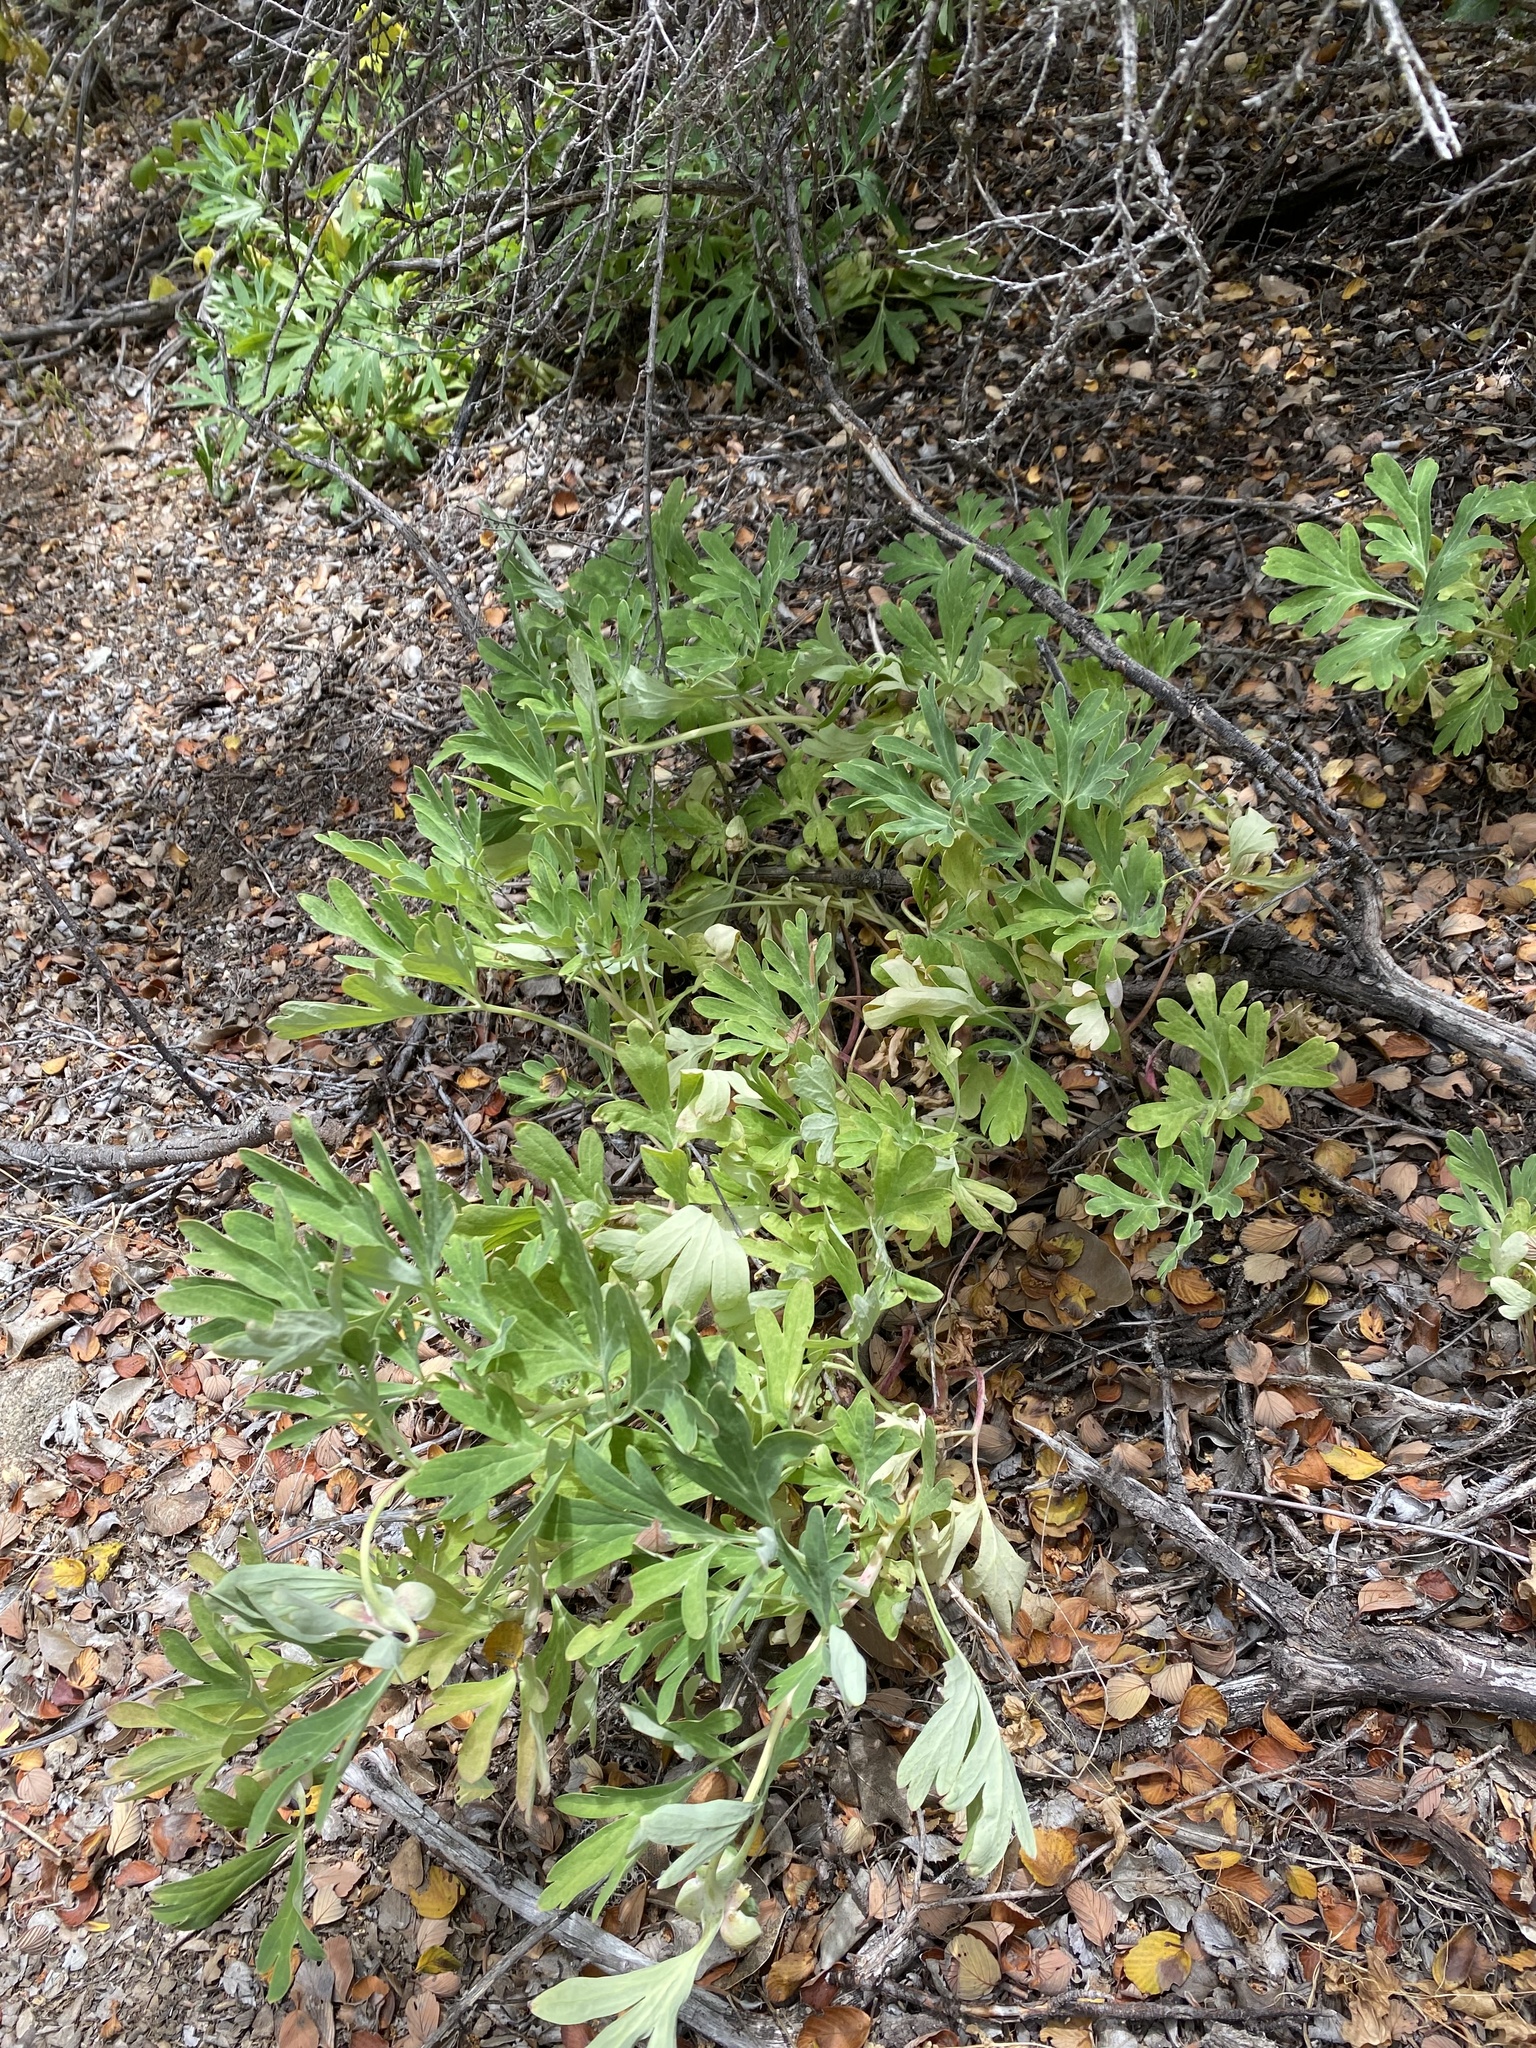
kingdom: Plantae
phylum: Tracheophyta
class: Magnoliopsida
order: Saxifragales
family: Paeoniaceae
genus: Paeonia
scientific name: Paeonia californica
